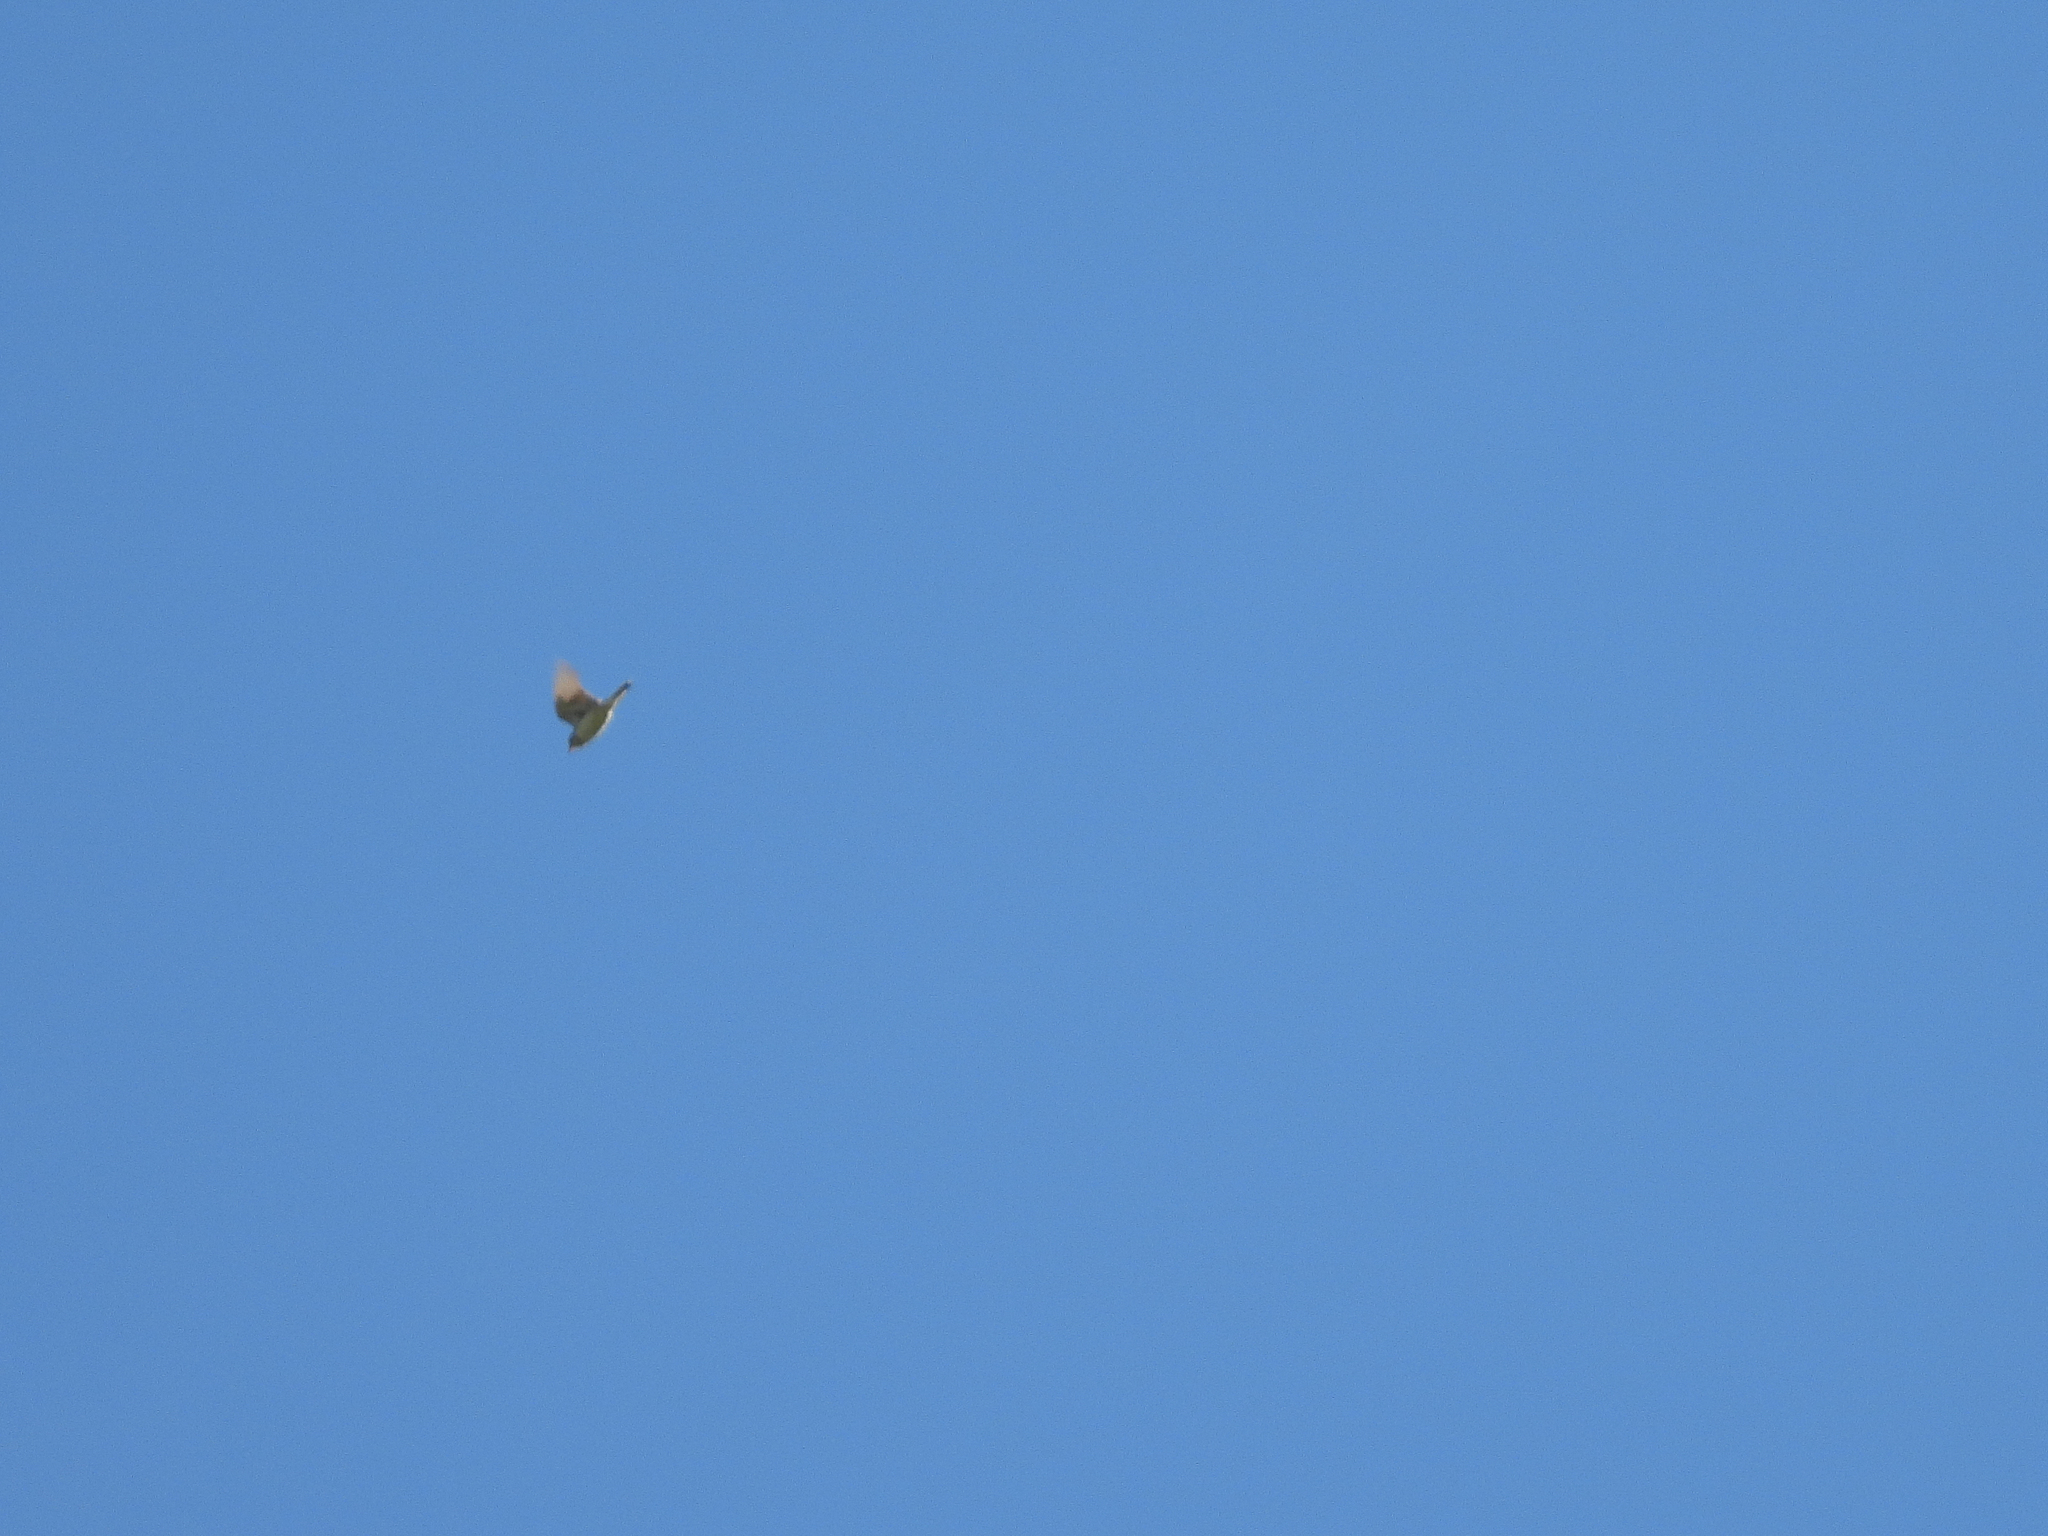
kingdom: Animalia
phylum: Chordata
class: Aves
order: Passeriformes
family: Motacillidae
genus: Anthus
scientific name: Anthus spragueii
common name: Sprague's pipit
